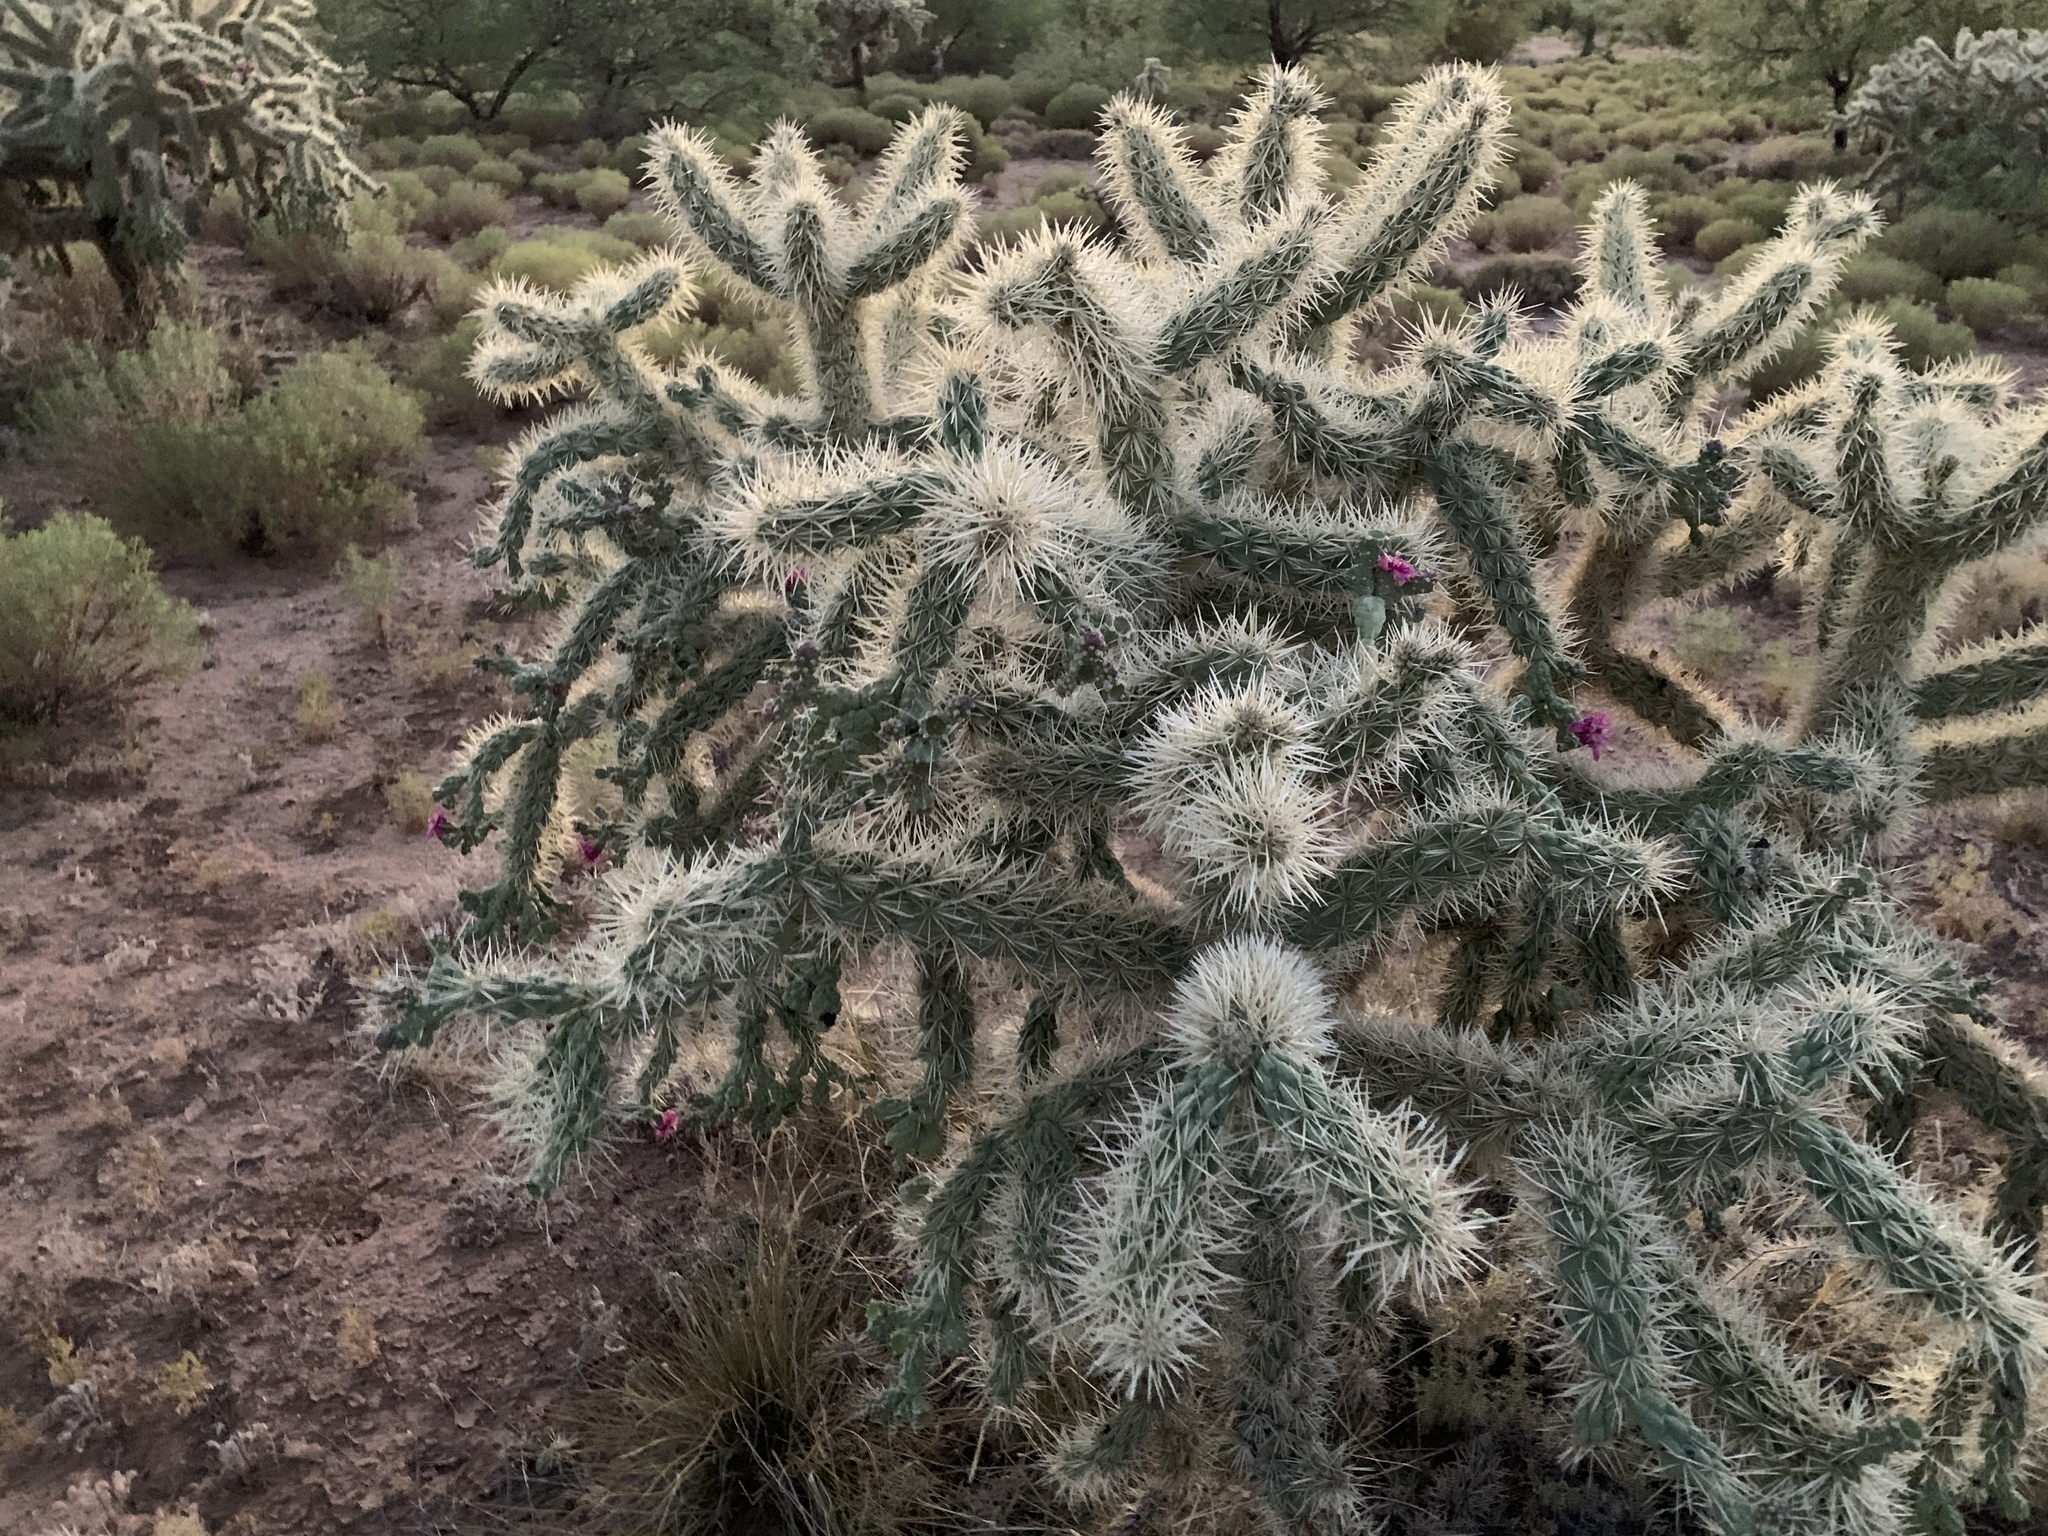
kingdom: Plantae
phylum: Tracheophyta
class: Magnoliopsida
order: Caryophyllales
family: Cactaceae
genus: Cylindropuntia
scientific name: Cylindropuntia fulgida
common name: Jumping cholla
